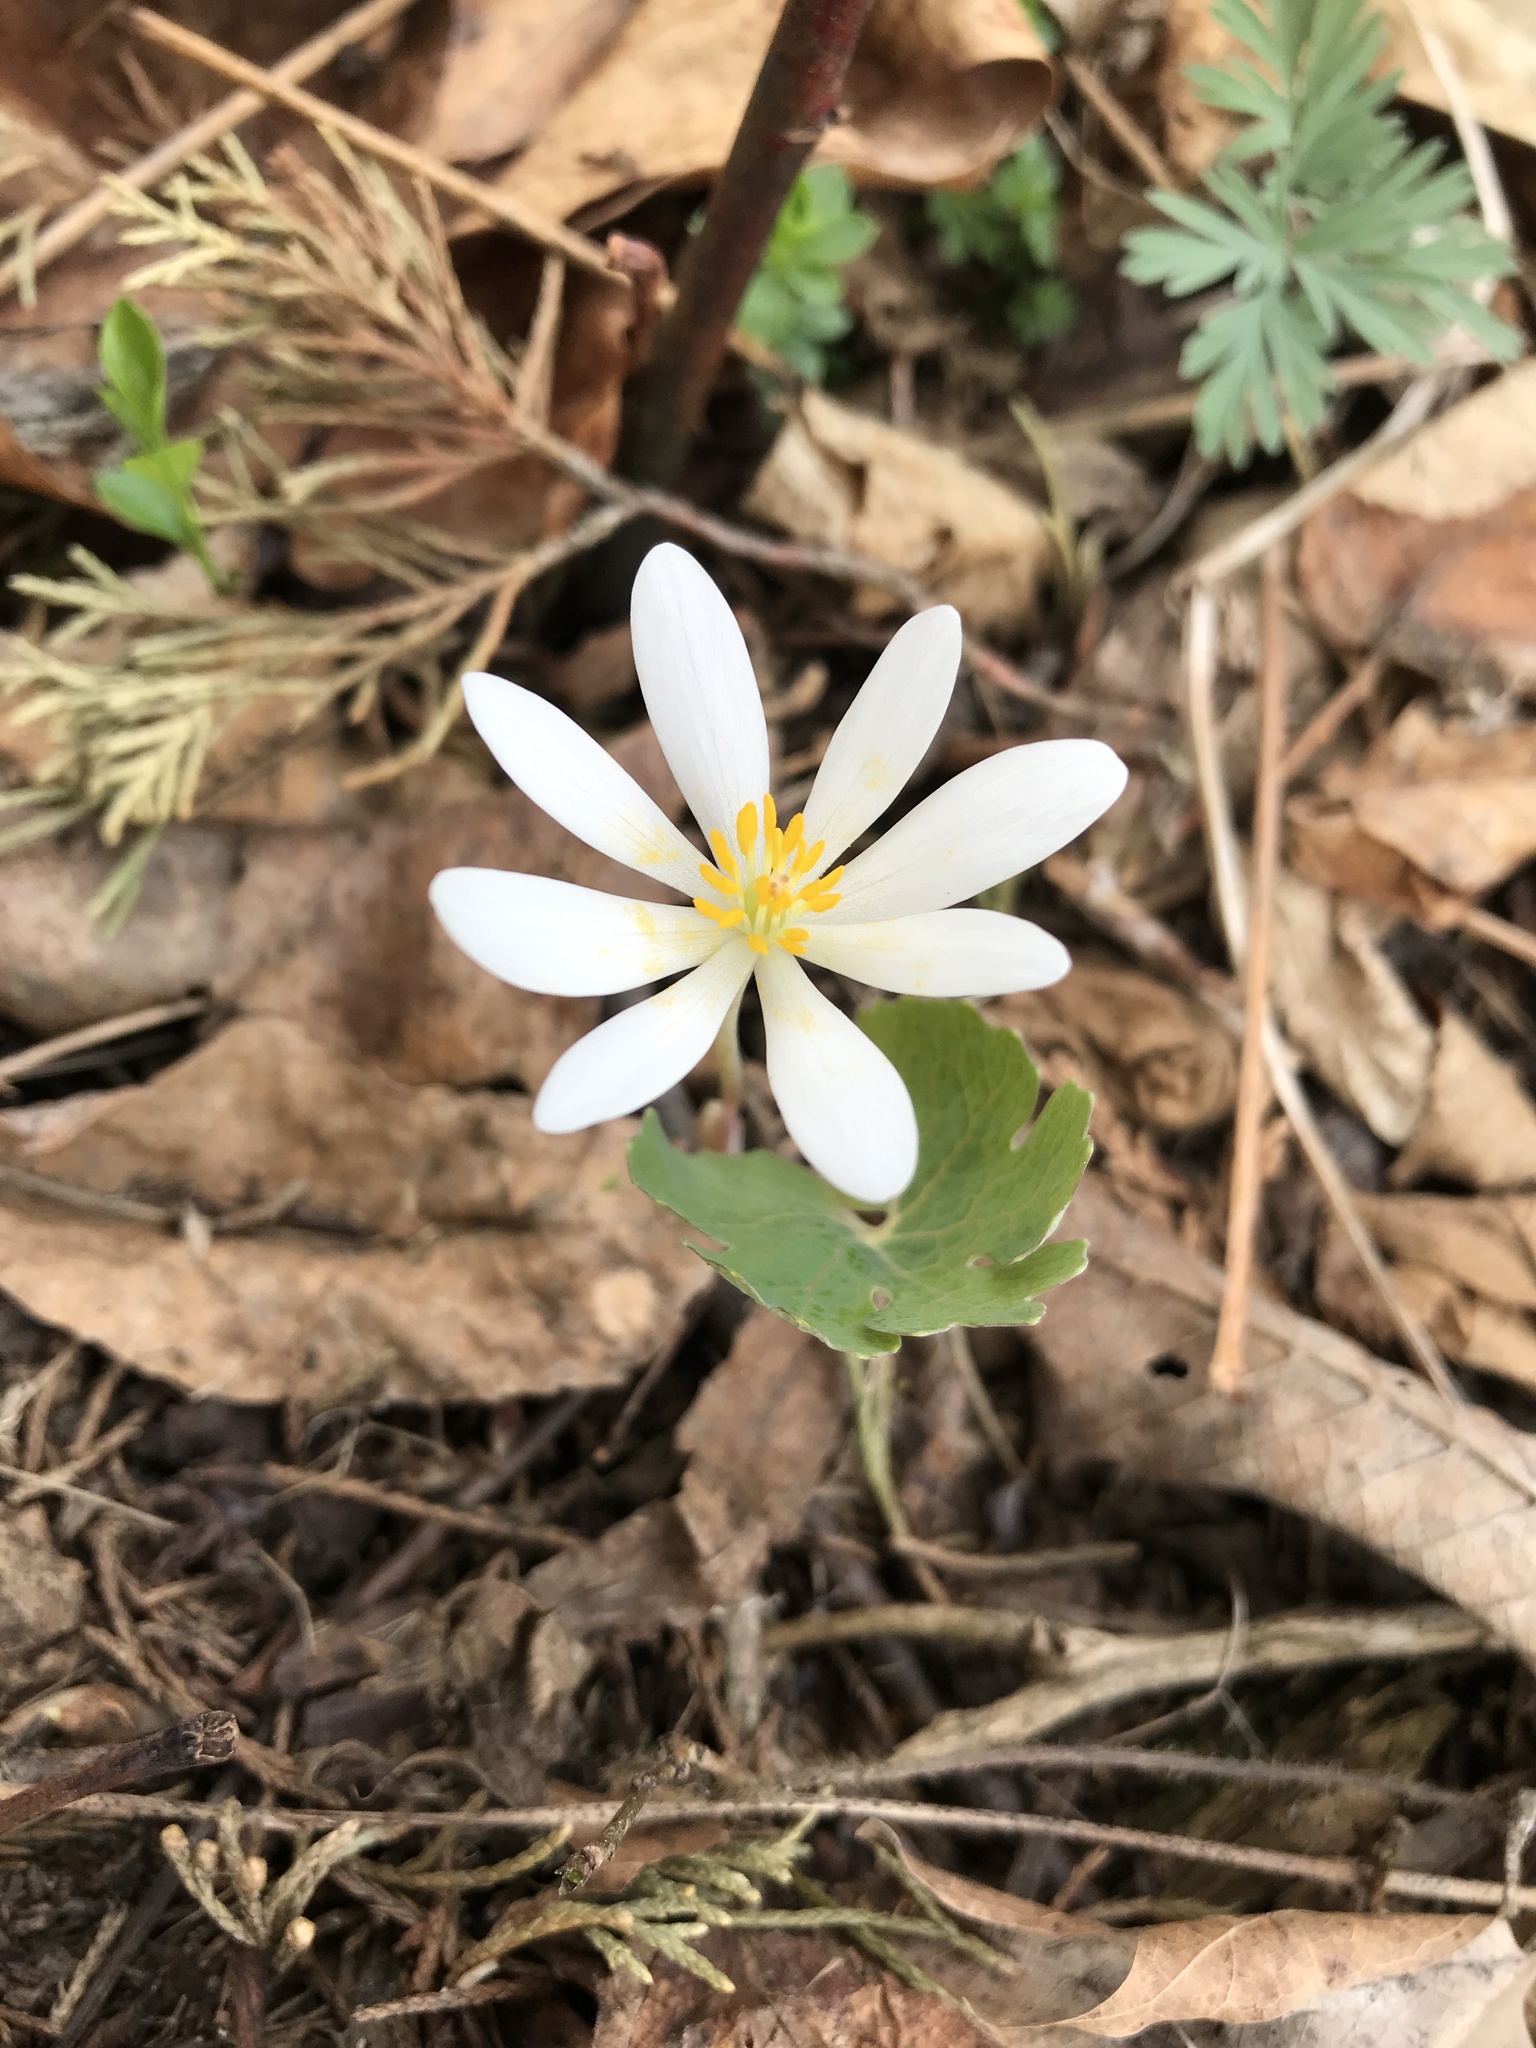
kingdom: Plantae
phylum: Tracheophyta
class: Magnoliopsida
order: Ranunculales
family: Papaveraceae
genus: Sanguinaria
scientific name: Sanguinaria canadensis
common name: Bloodroot
